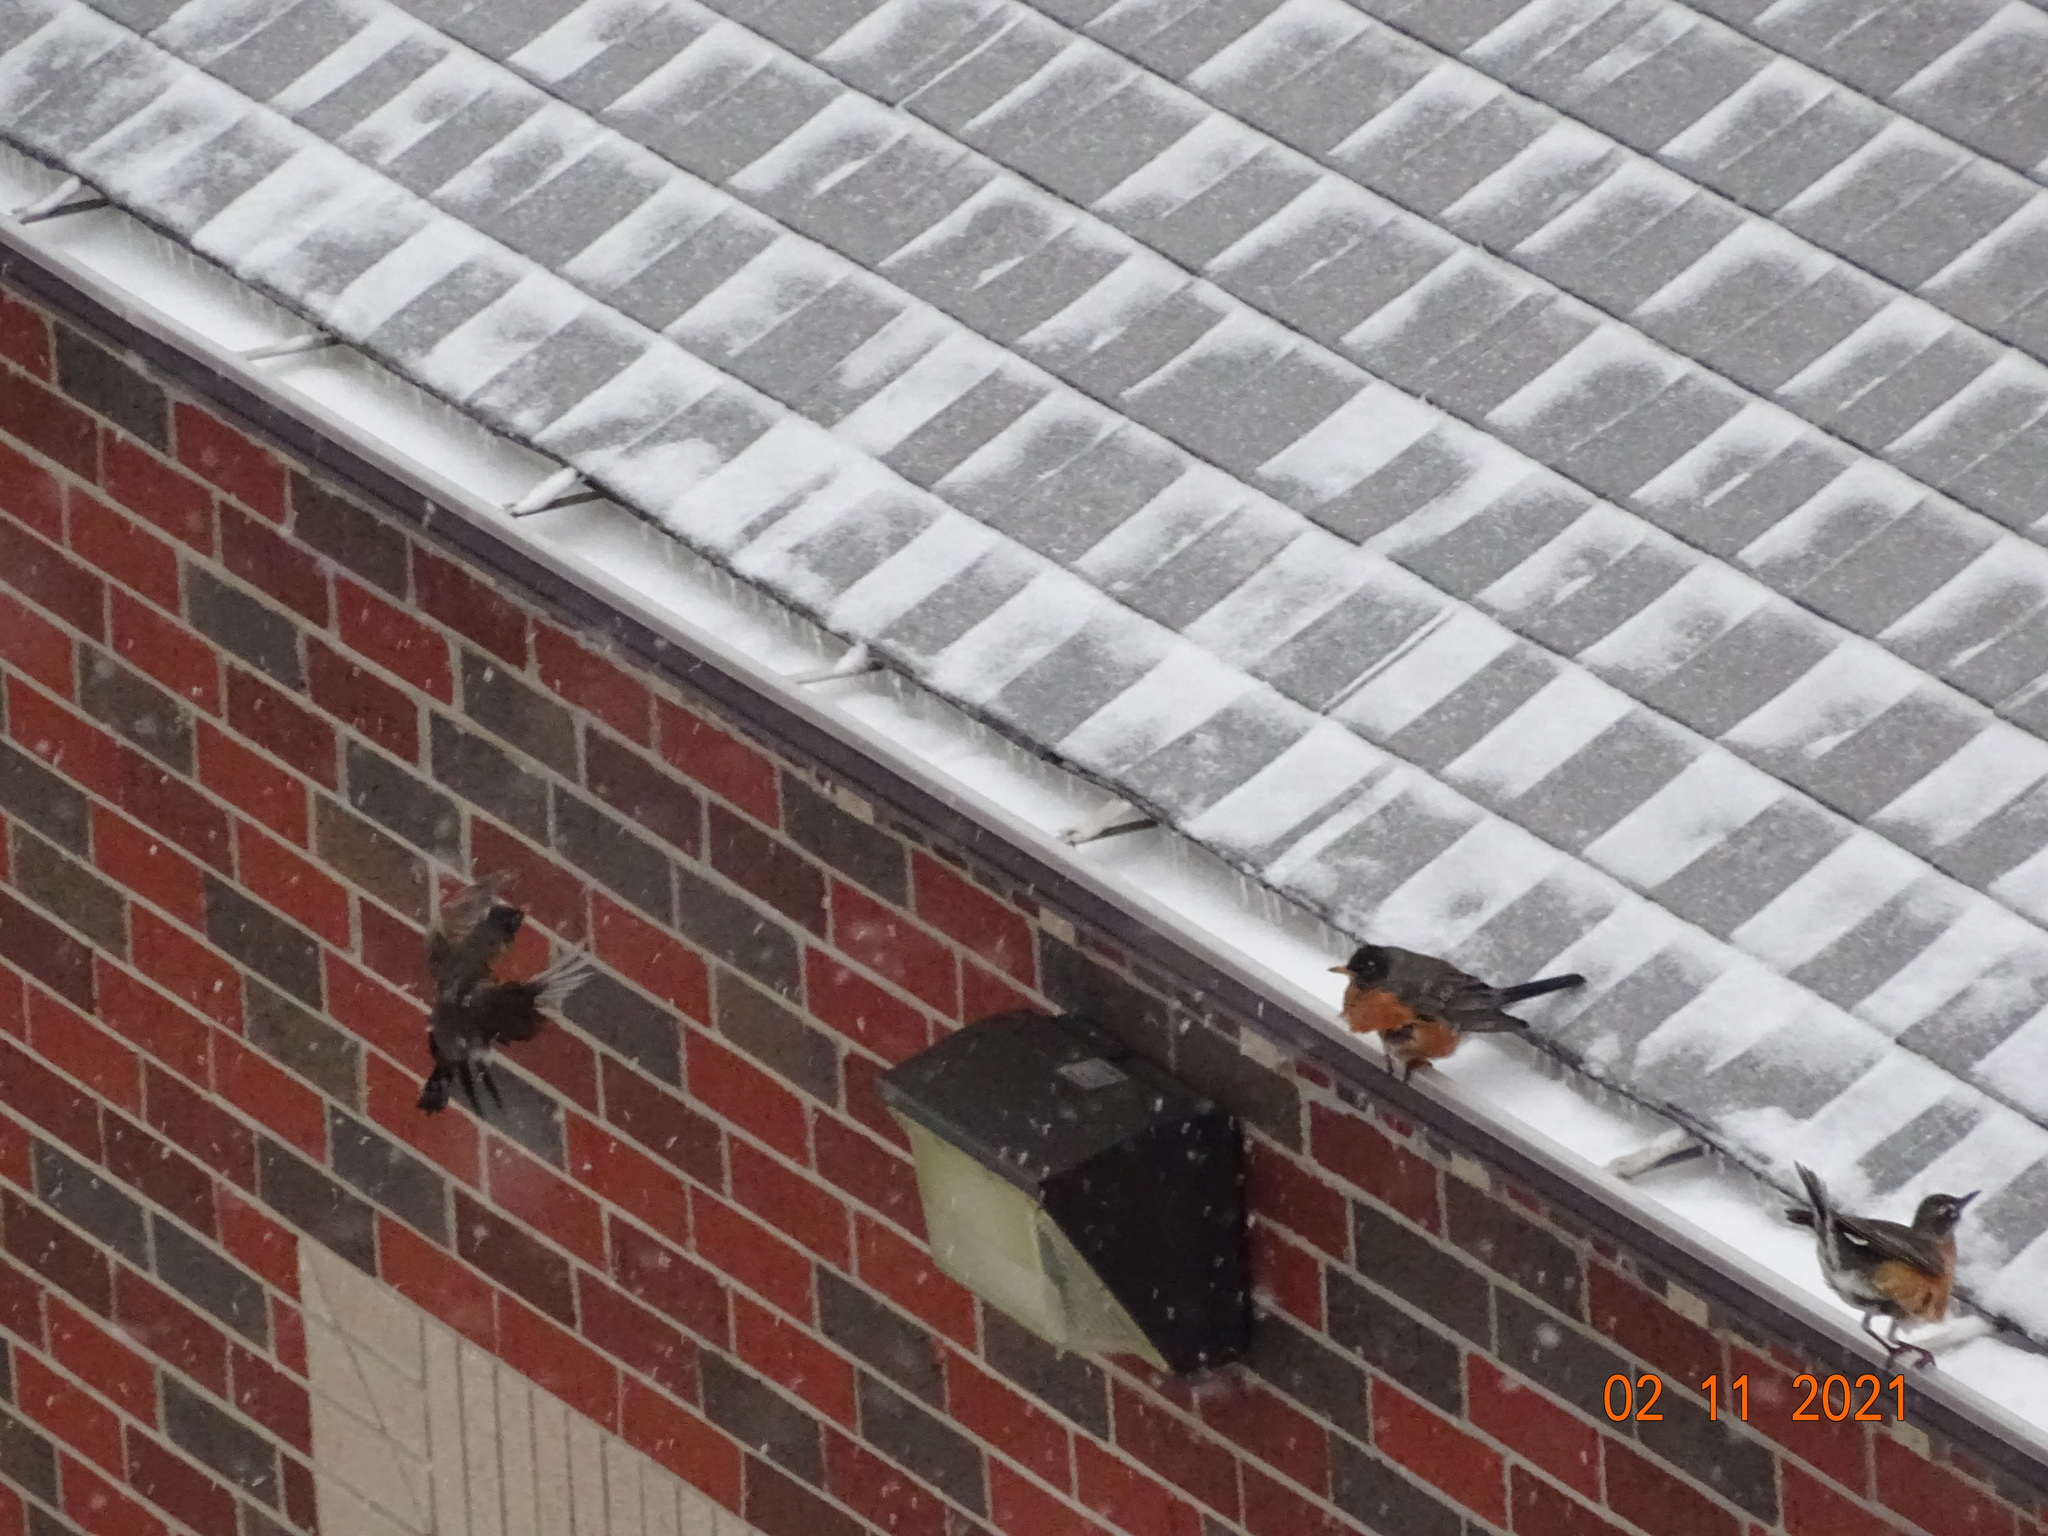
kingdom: Animalia
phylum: Chordata
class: Aves
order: Passeriformes
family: Turdidae
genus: Turdus
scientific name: Turdus migratorius
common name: American robin
